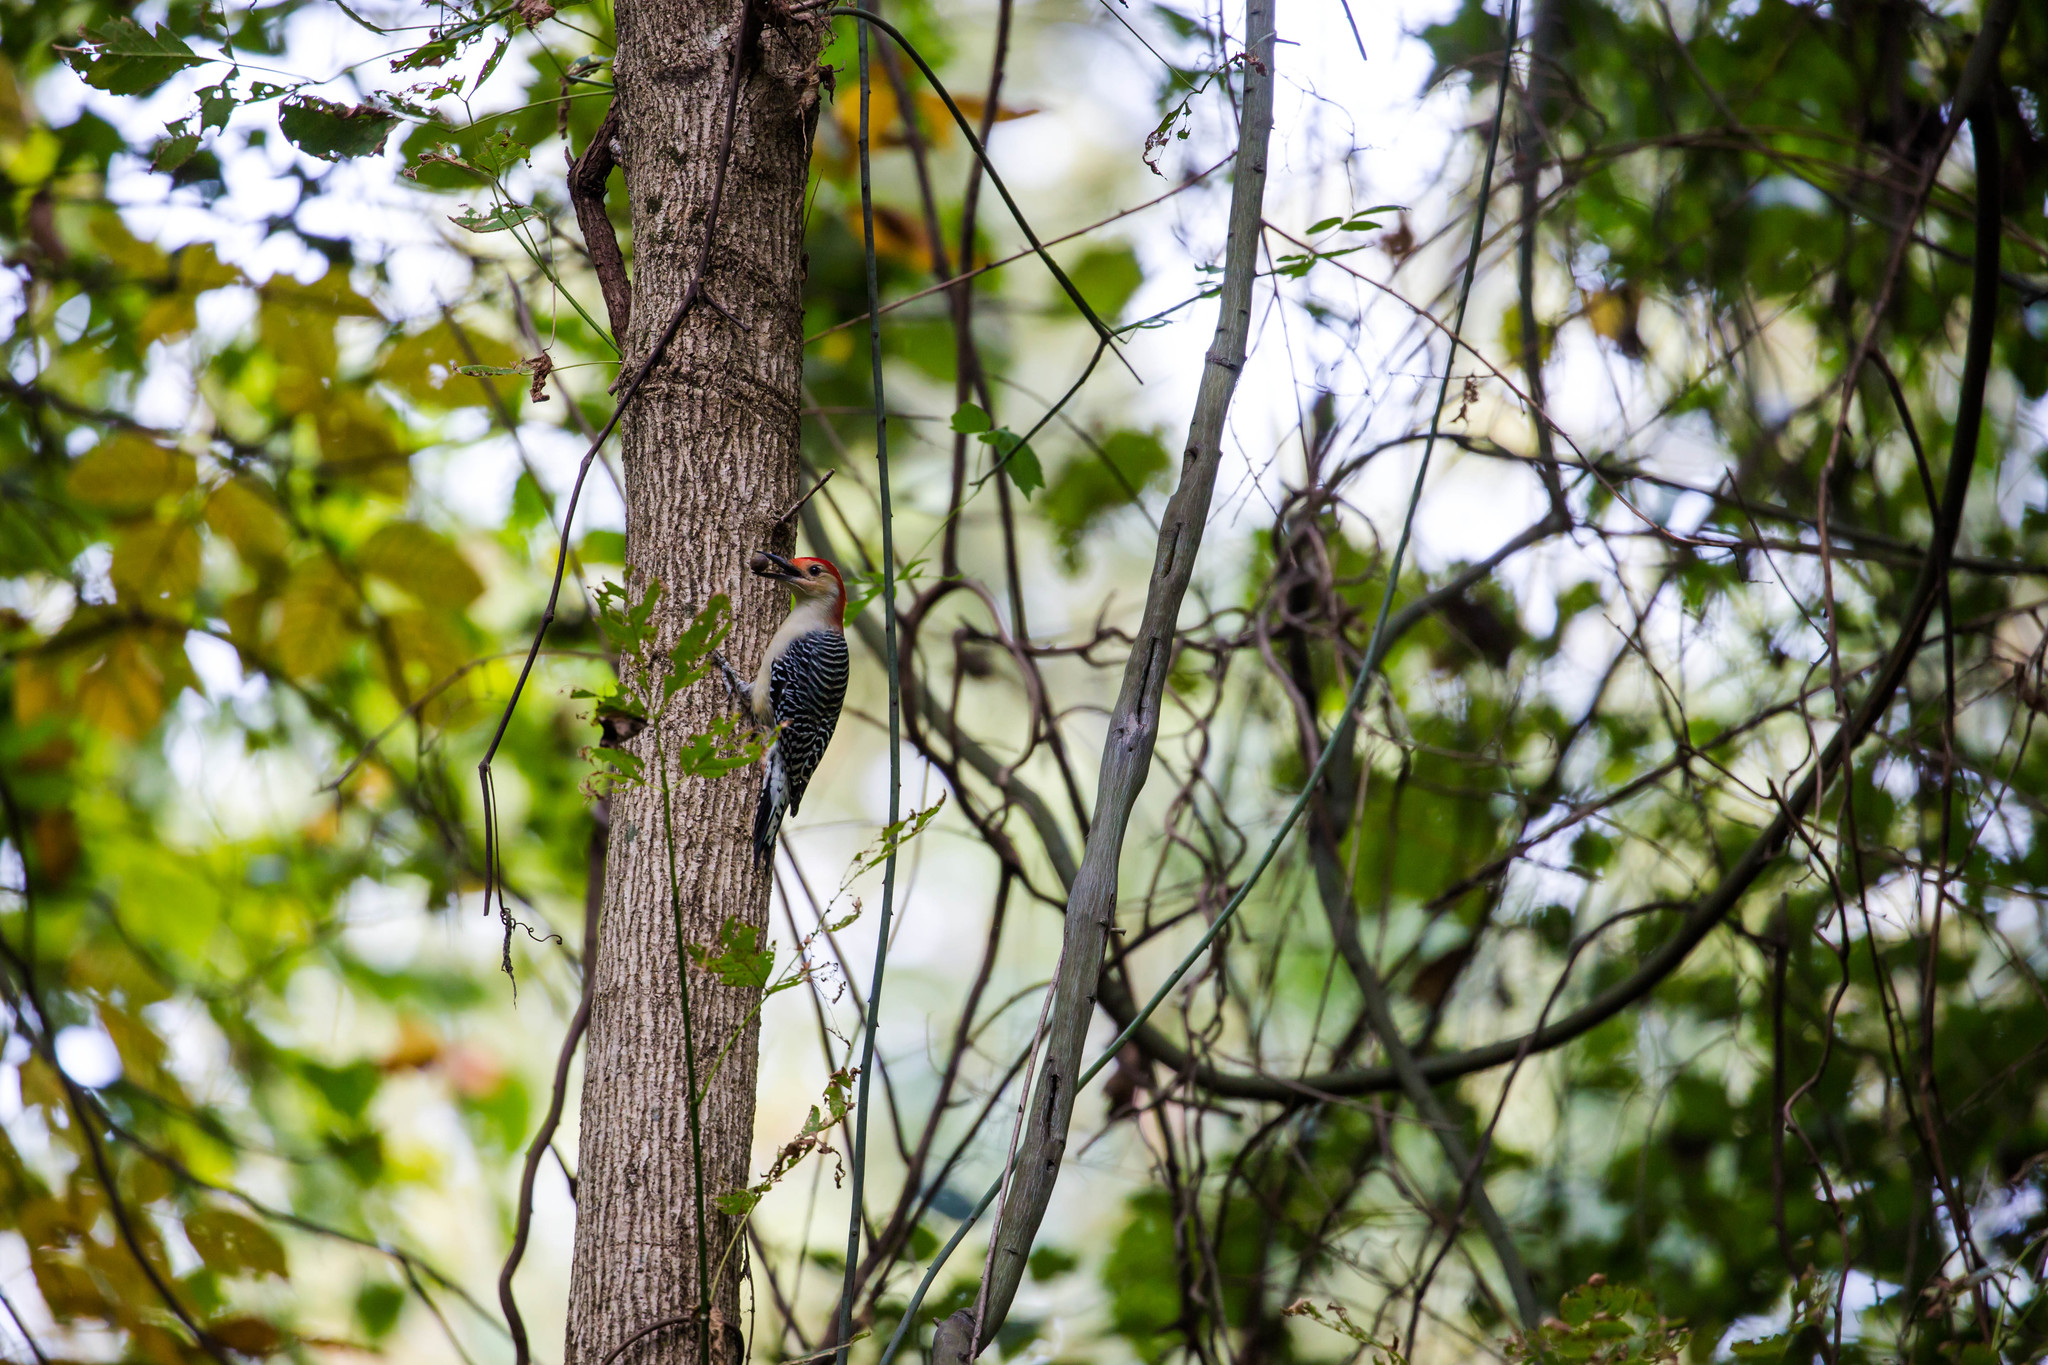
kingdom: Animalia
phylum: Chordata
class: Aves
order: Piciformes
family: Picidae
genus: Melanerpes
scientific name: Melanerpes carolinus
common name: Red-bellied woodpecker
